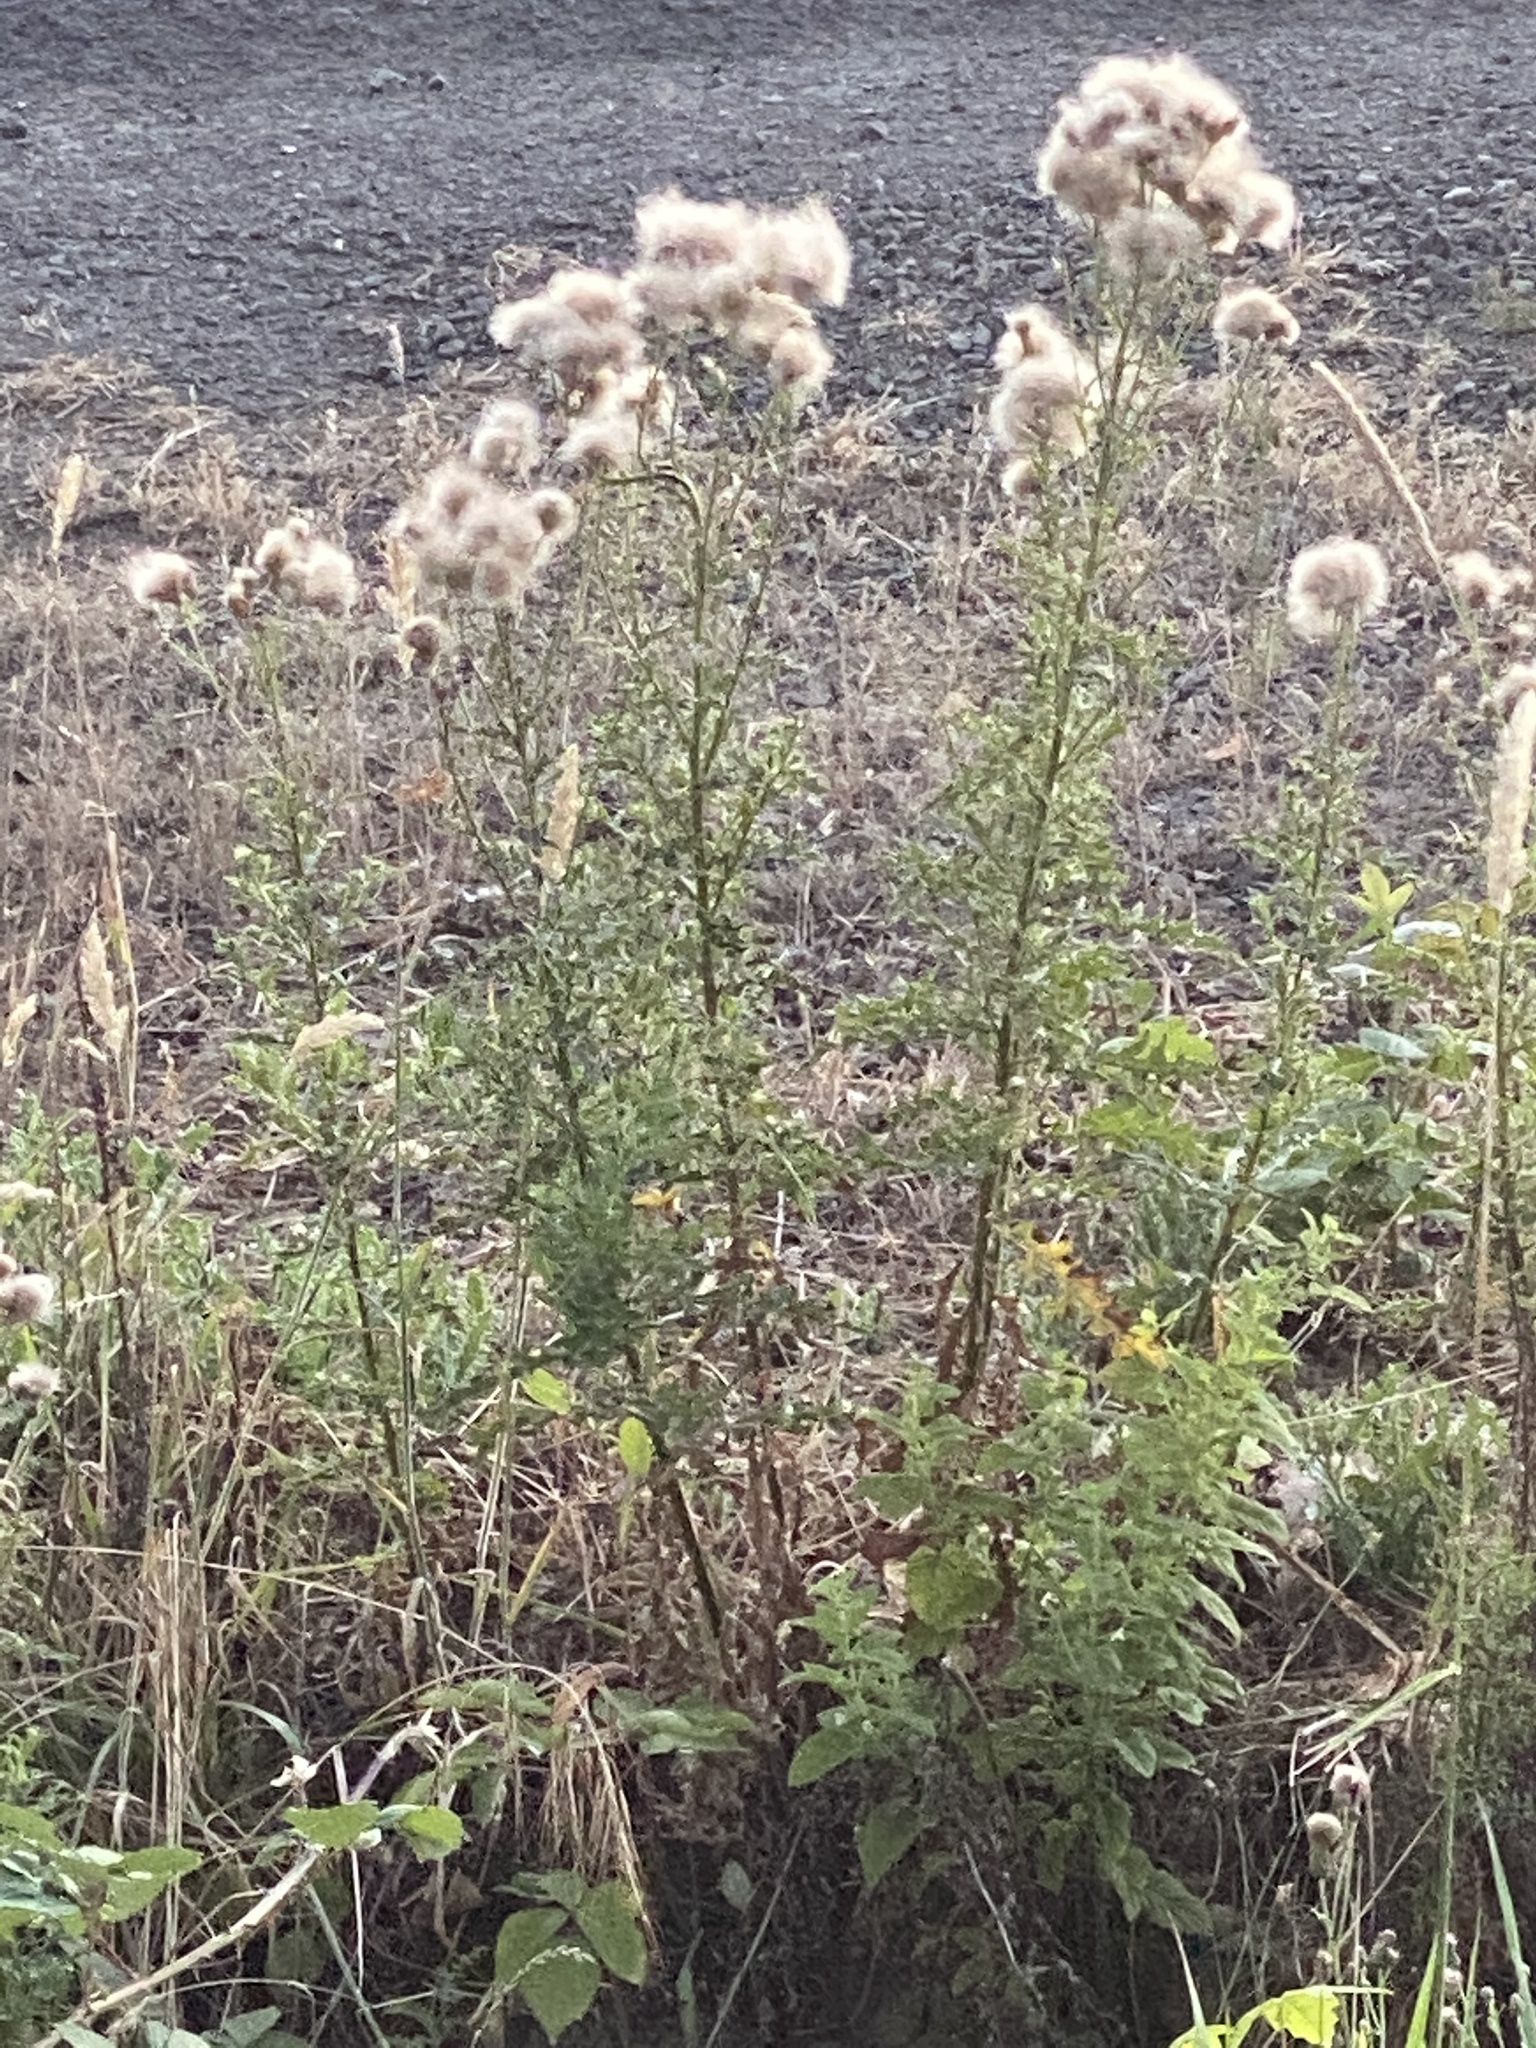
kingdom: Plantae
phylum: Tracheophyta
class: Magnoliopsida
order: Asterales
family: Asteraceae
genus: Cirsium
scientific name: Cirsium arvense
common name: Creeping thistle
